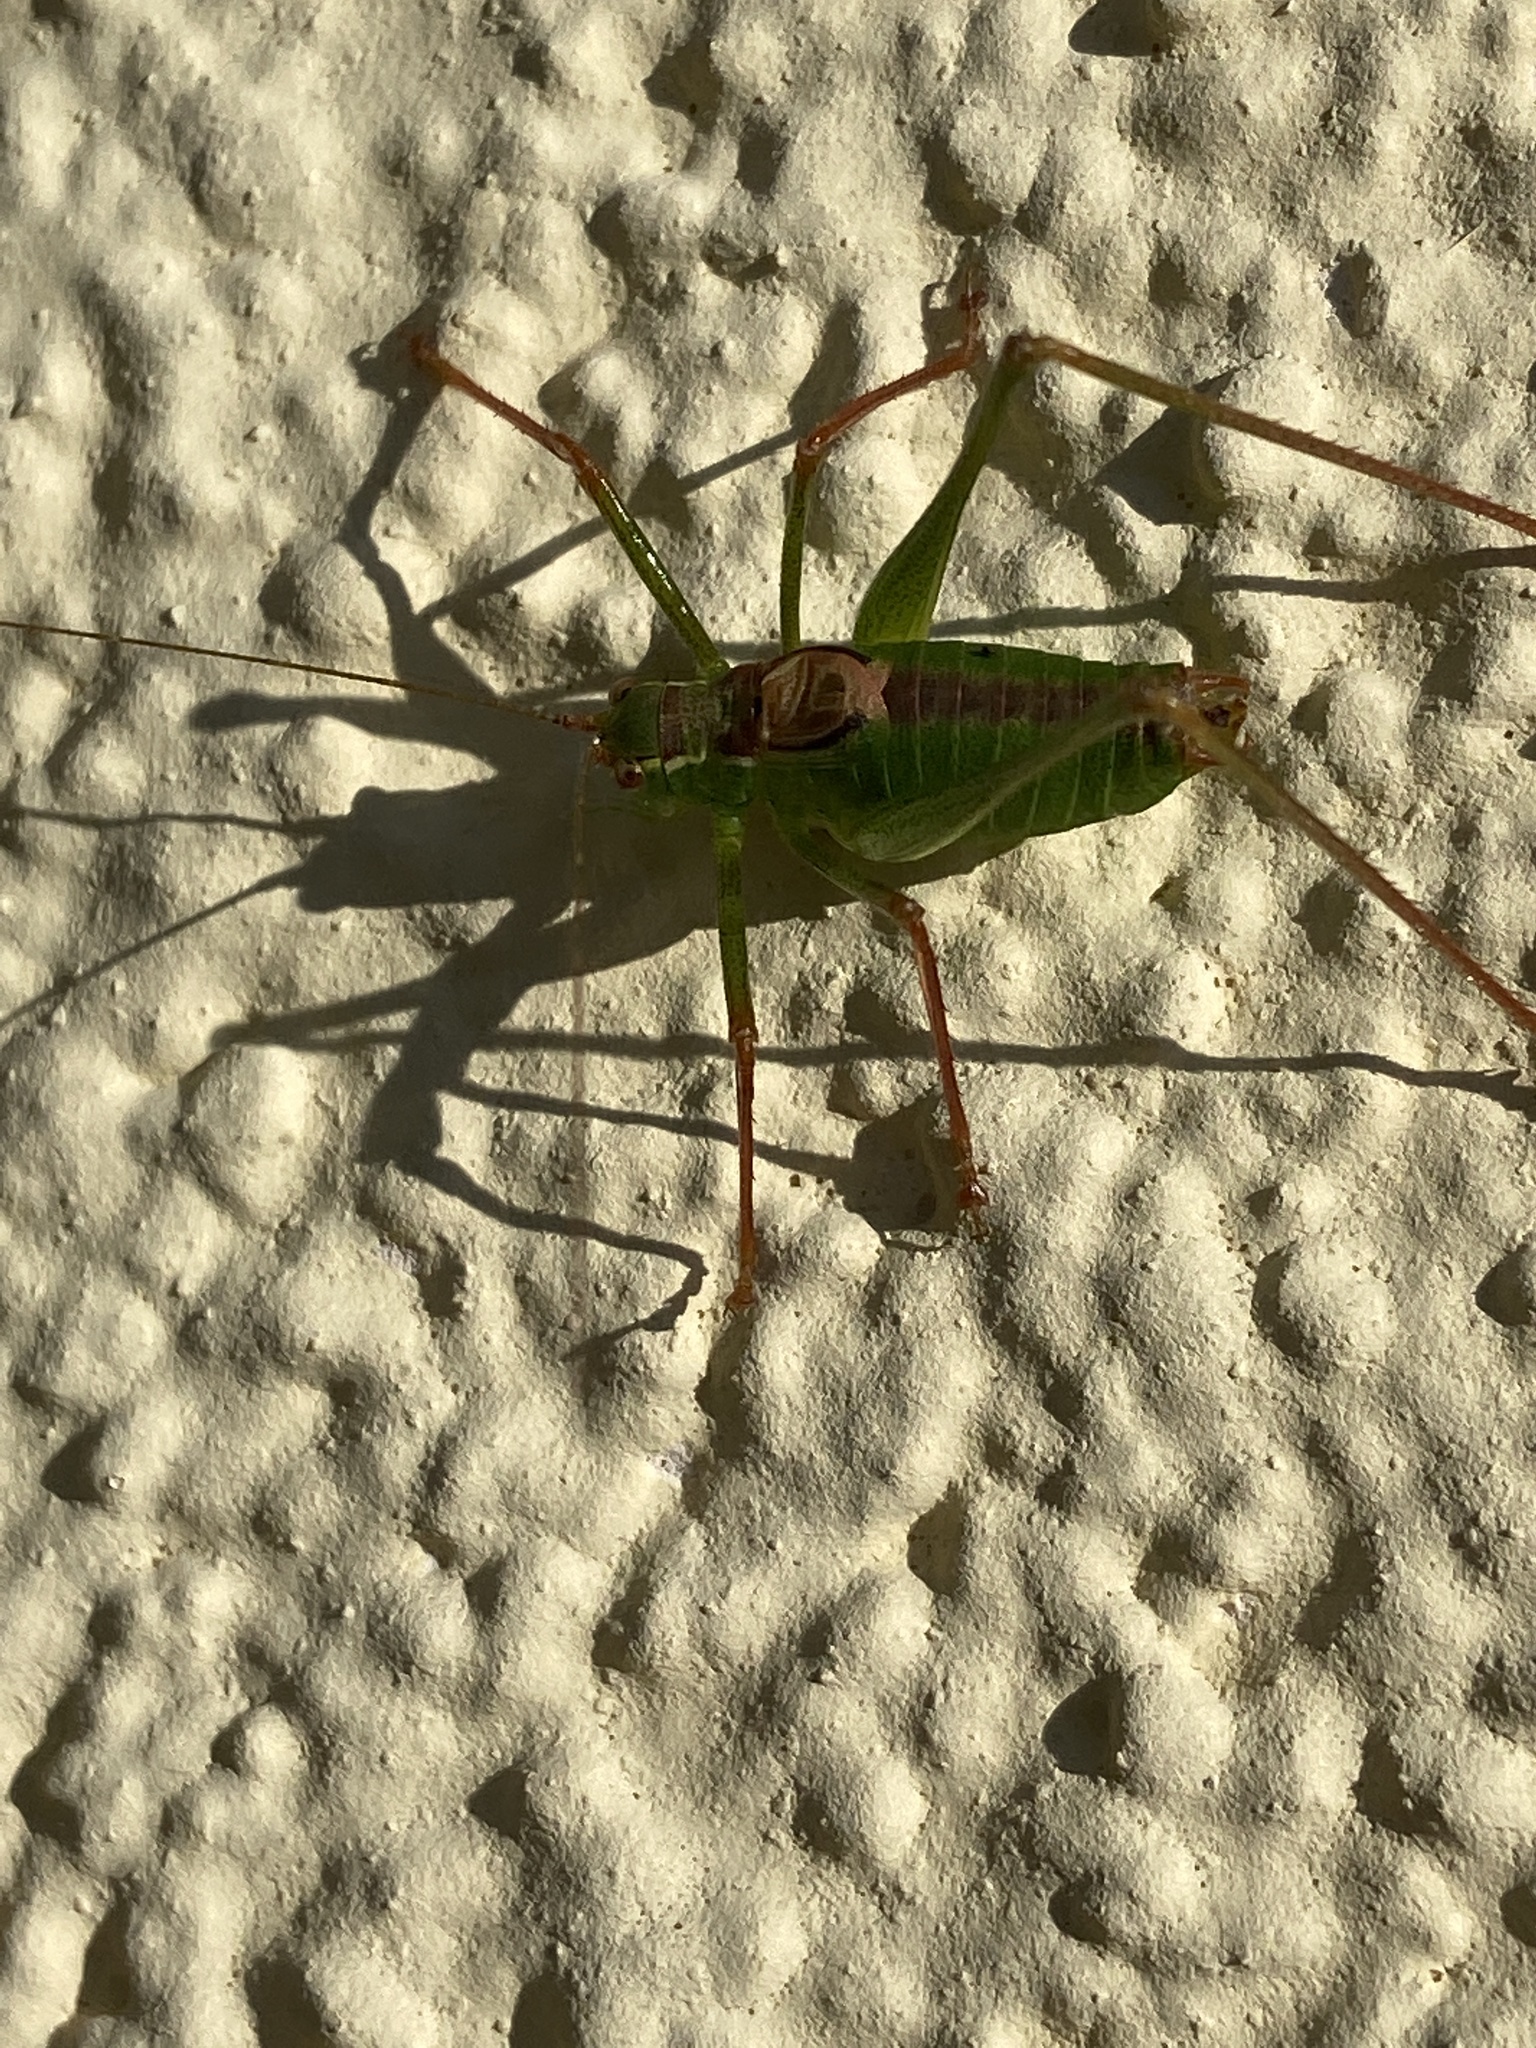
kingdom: Animalia
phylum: Arthropoda
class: Insecta
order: Orthoptera
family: Tettigoniidae
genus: Leptophyes
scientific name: Leptophyes punctatissima
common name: Speckled bush-cricket
